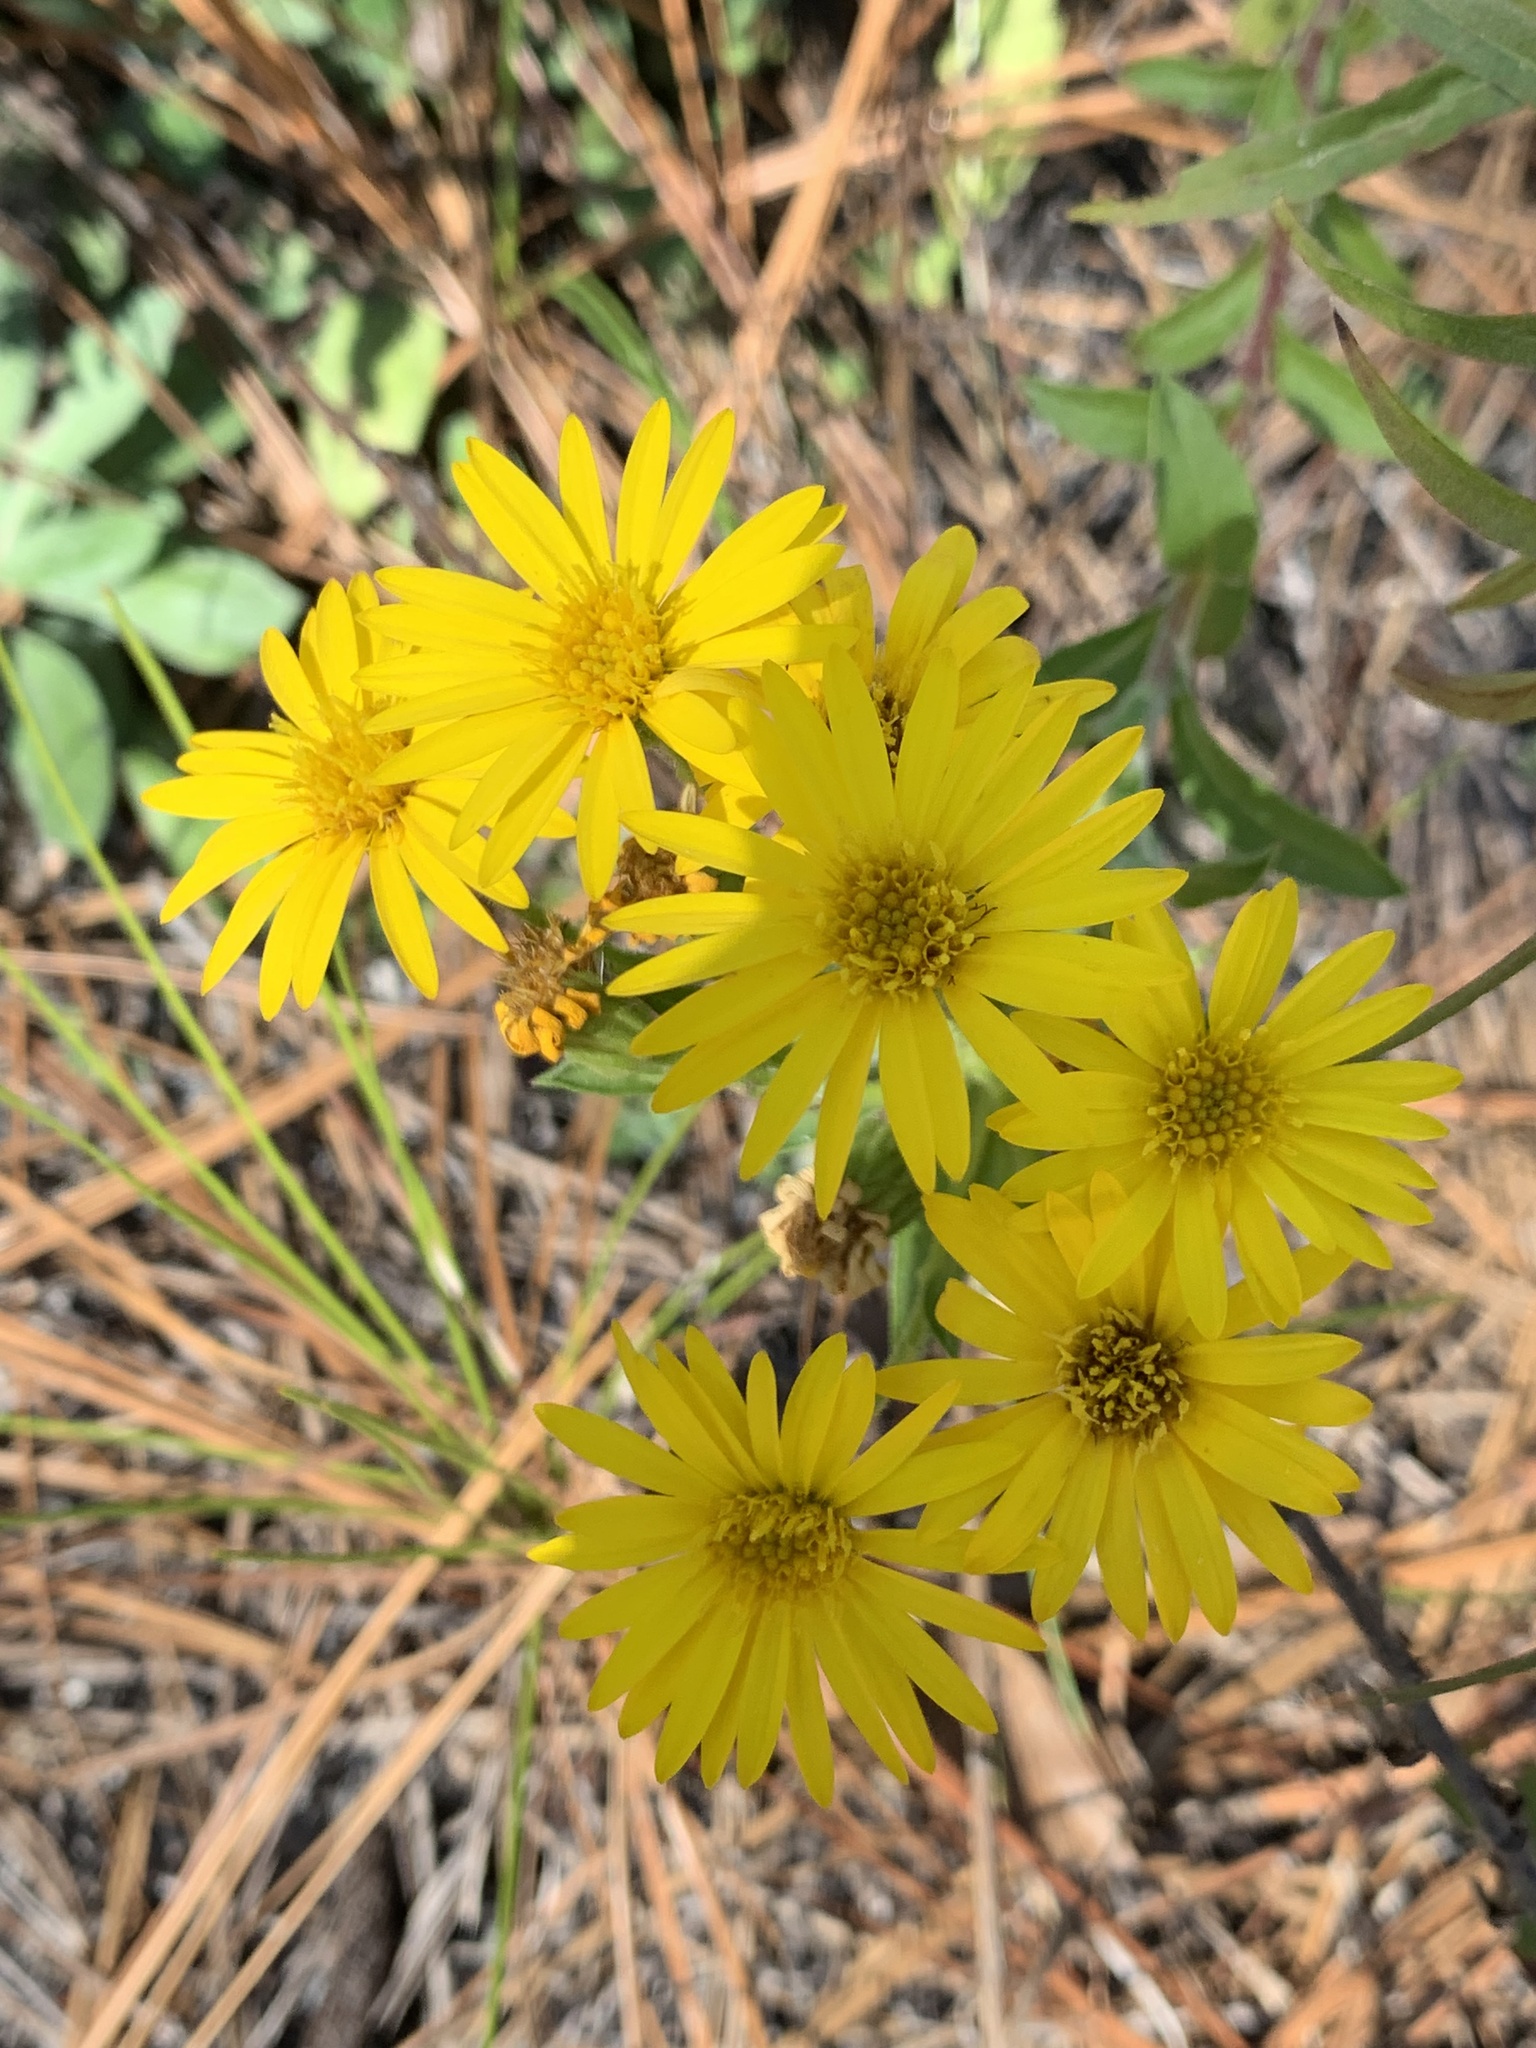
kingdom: Plantae
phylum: Tracheophyta
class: Magnoliopsida
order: Asterales
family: Asteraceae
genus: Chrysopsis
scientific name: Chrysopsis mariana
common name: Maryland golden-aster
